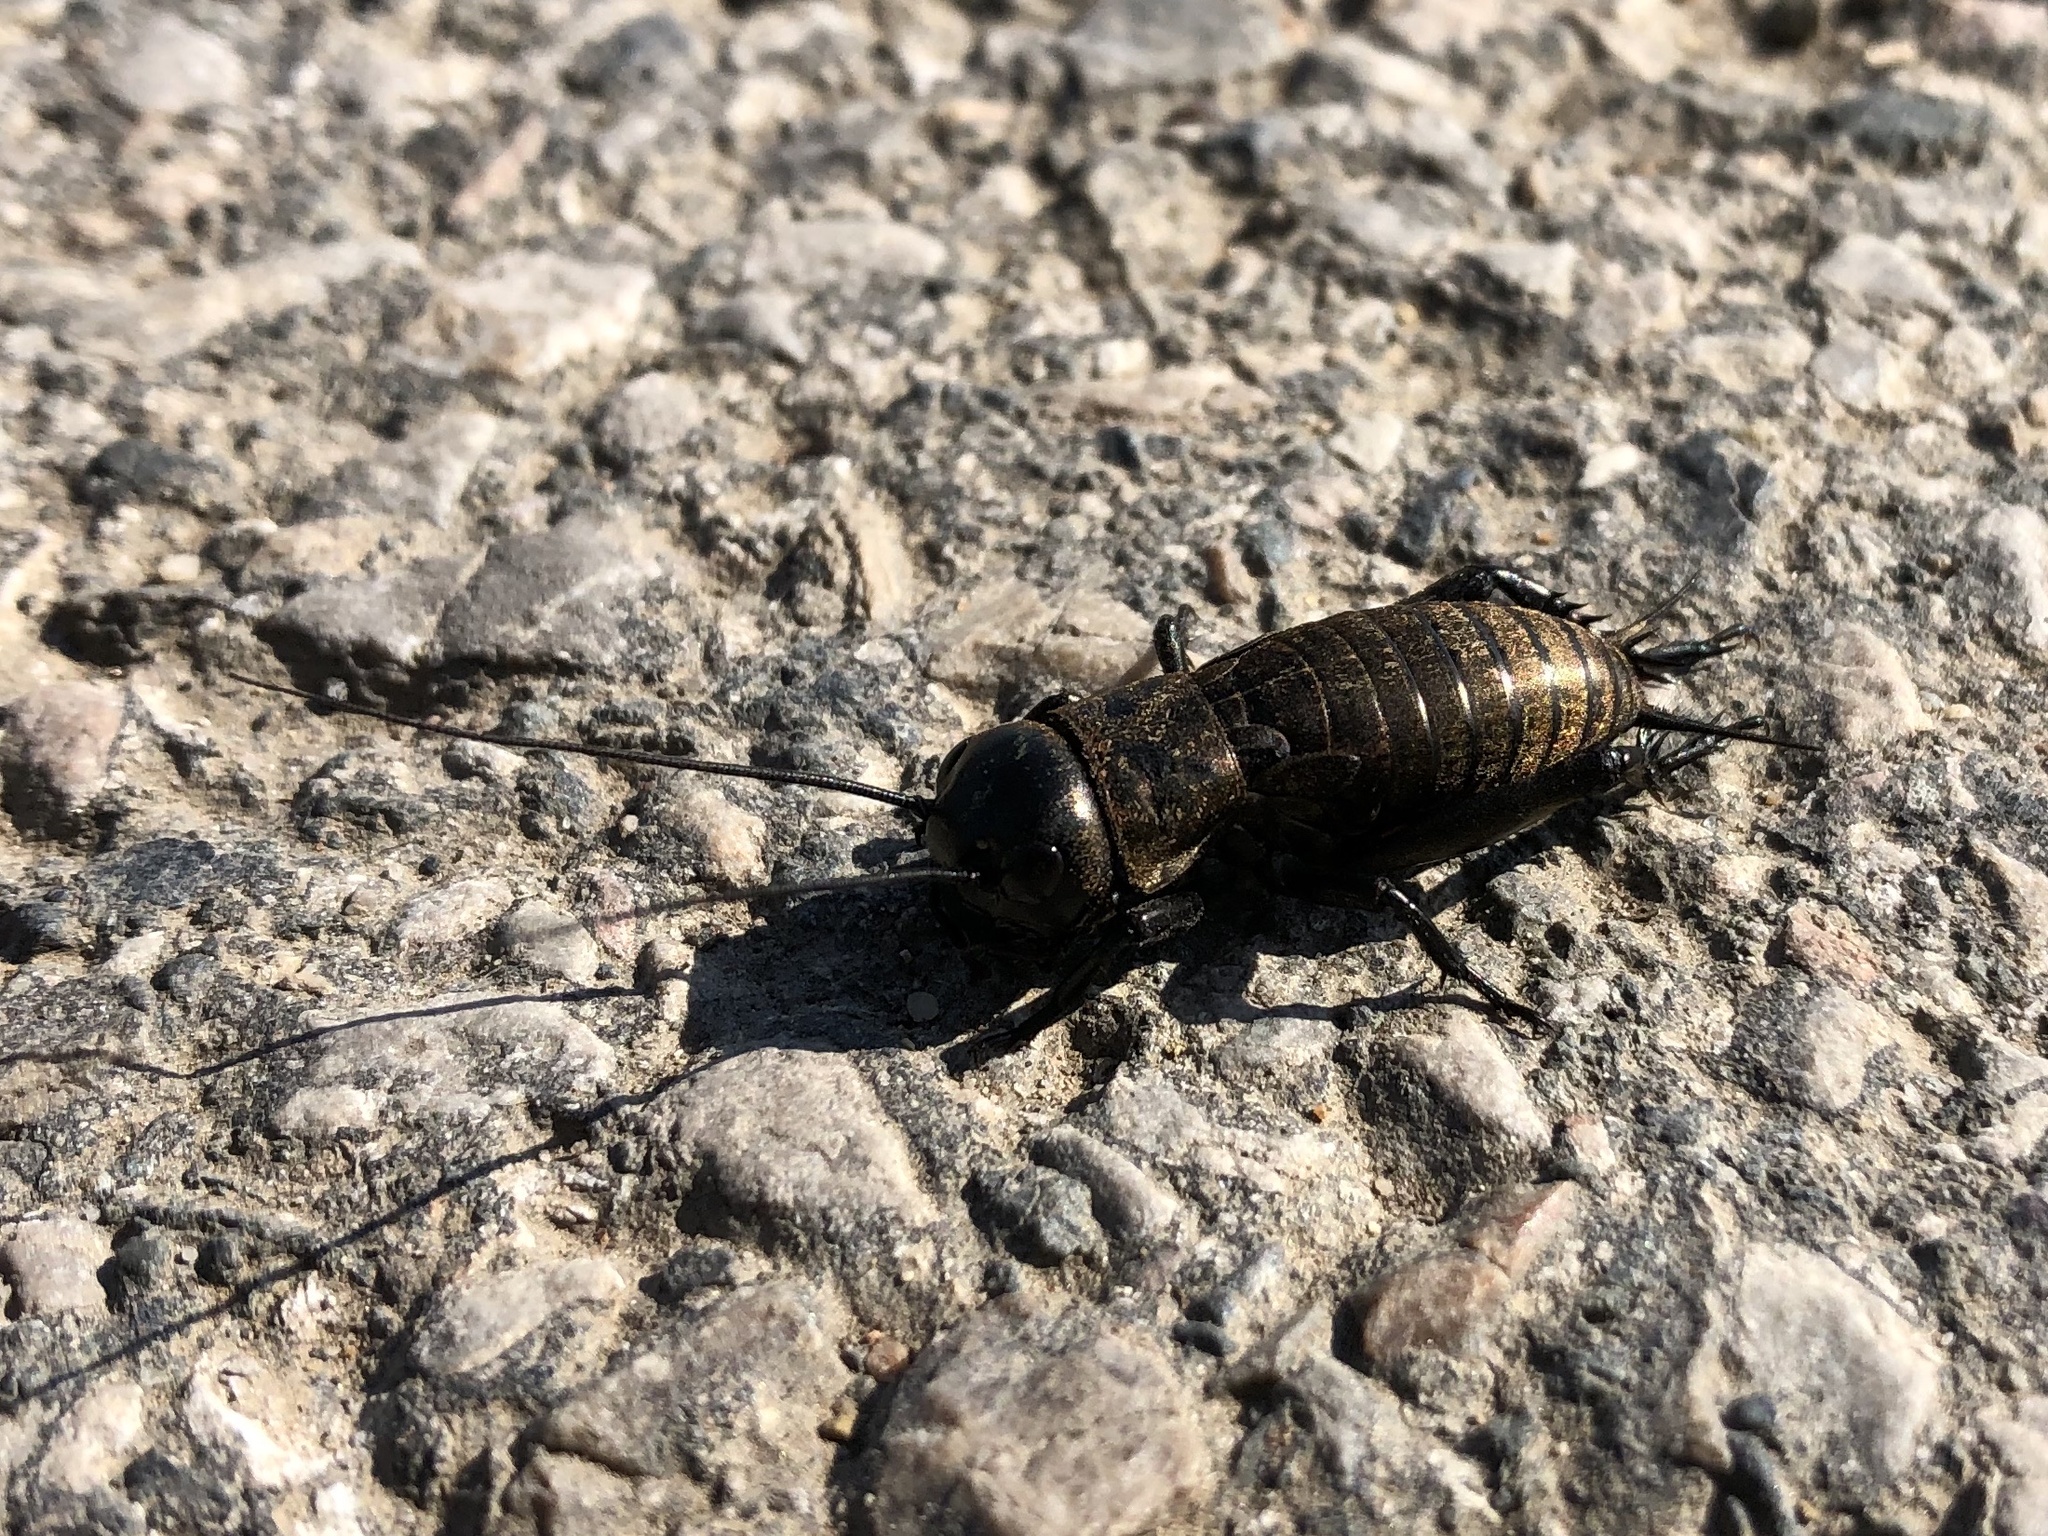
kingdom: Animalia
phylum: Arthropoda
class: Insecta
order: Orthoptera
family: Gryllidae
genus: Gryllus
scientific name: Gryllus campestris
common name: Field cricket
